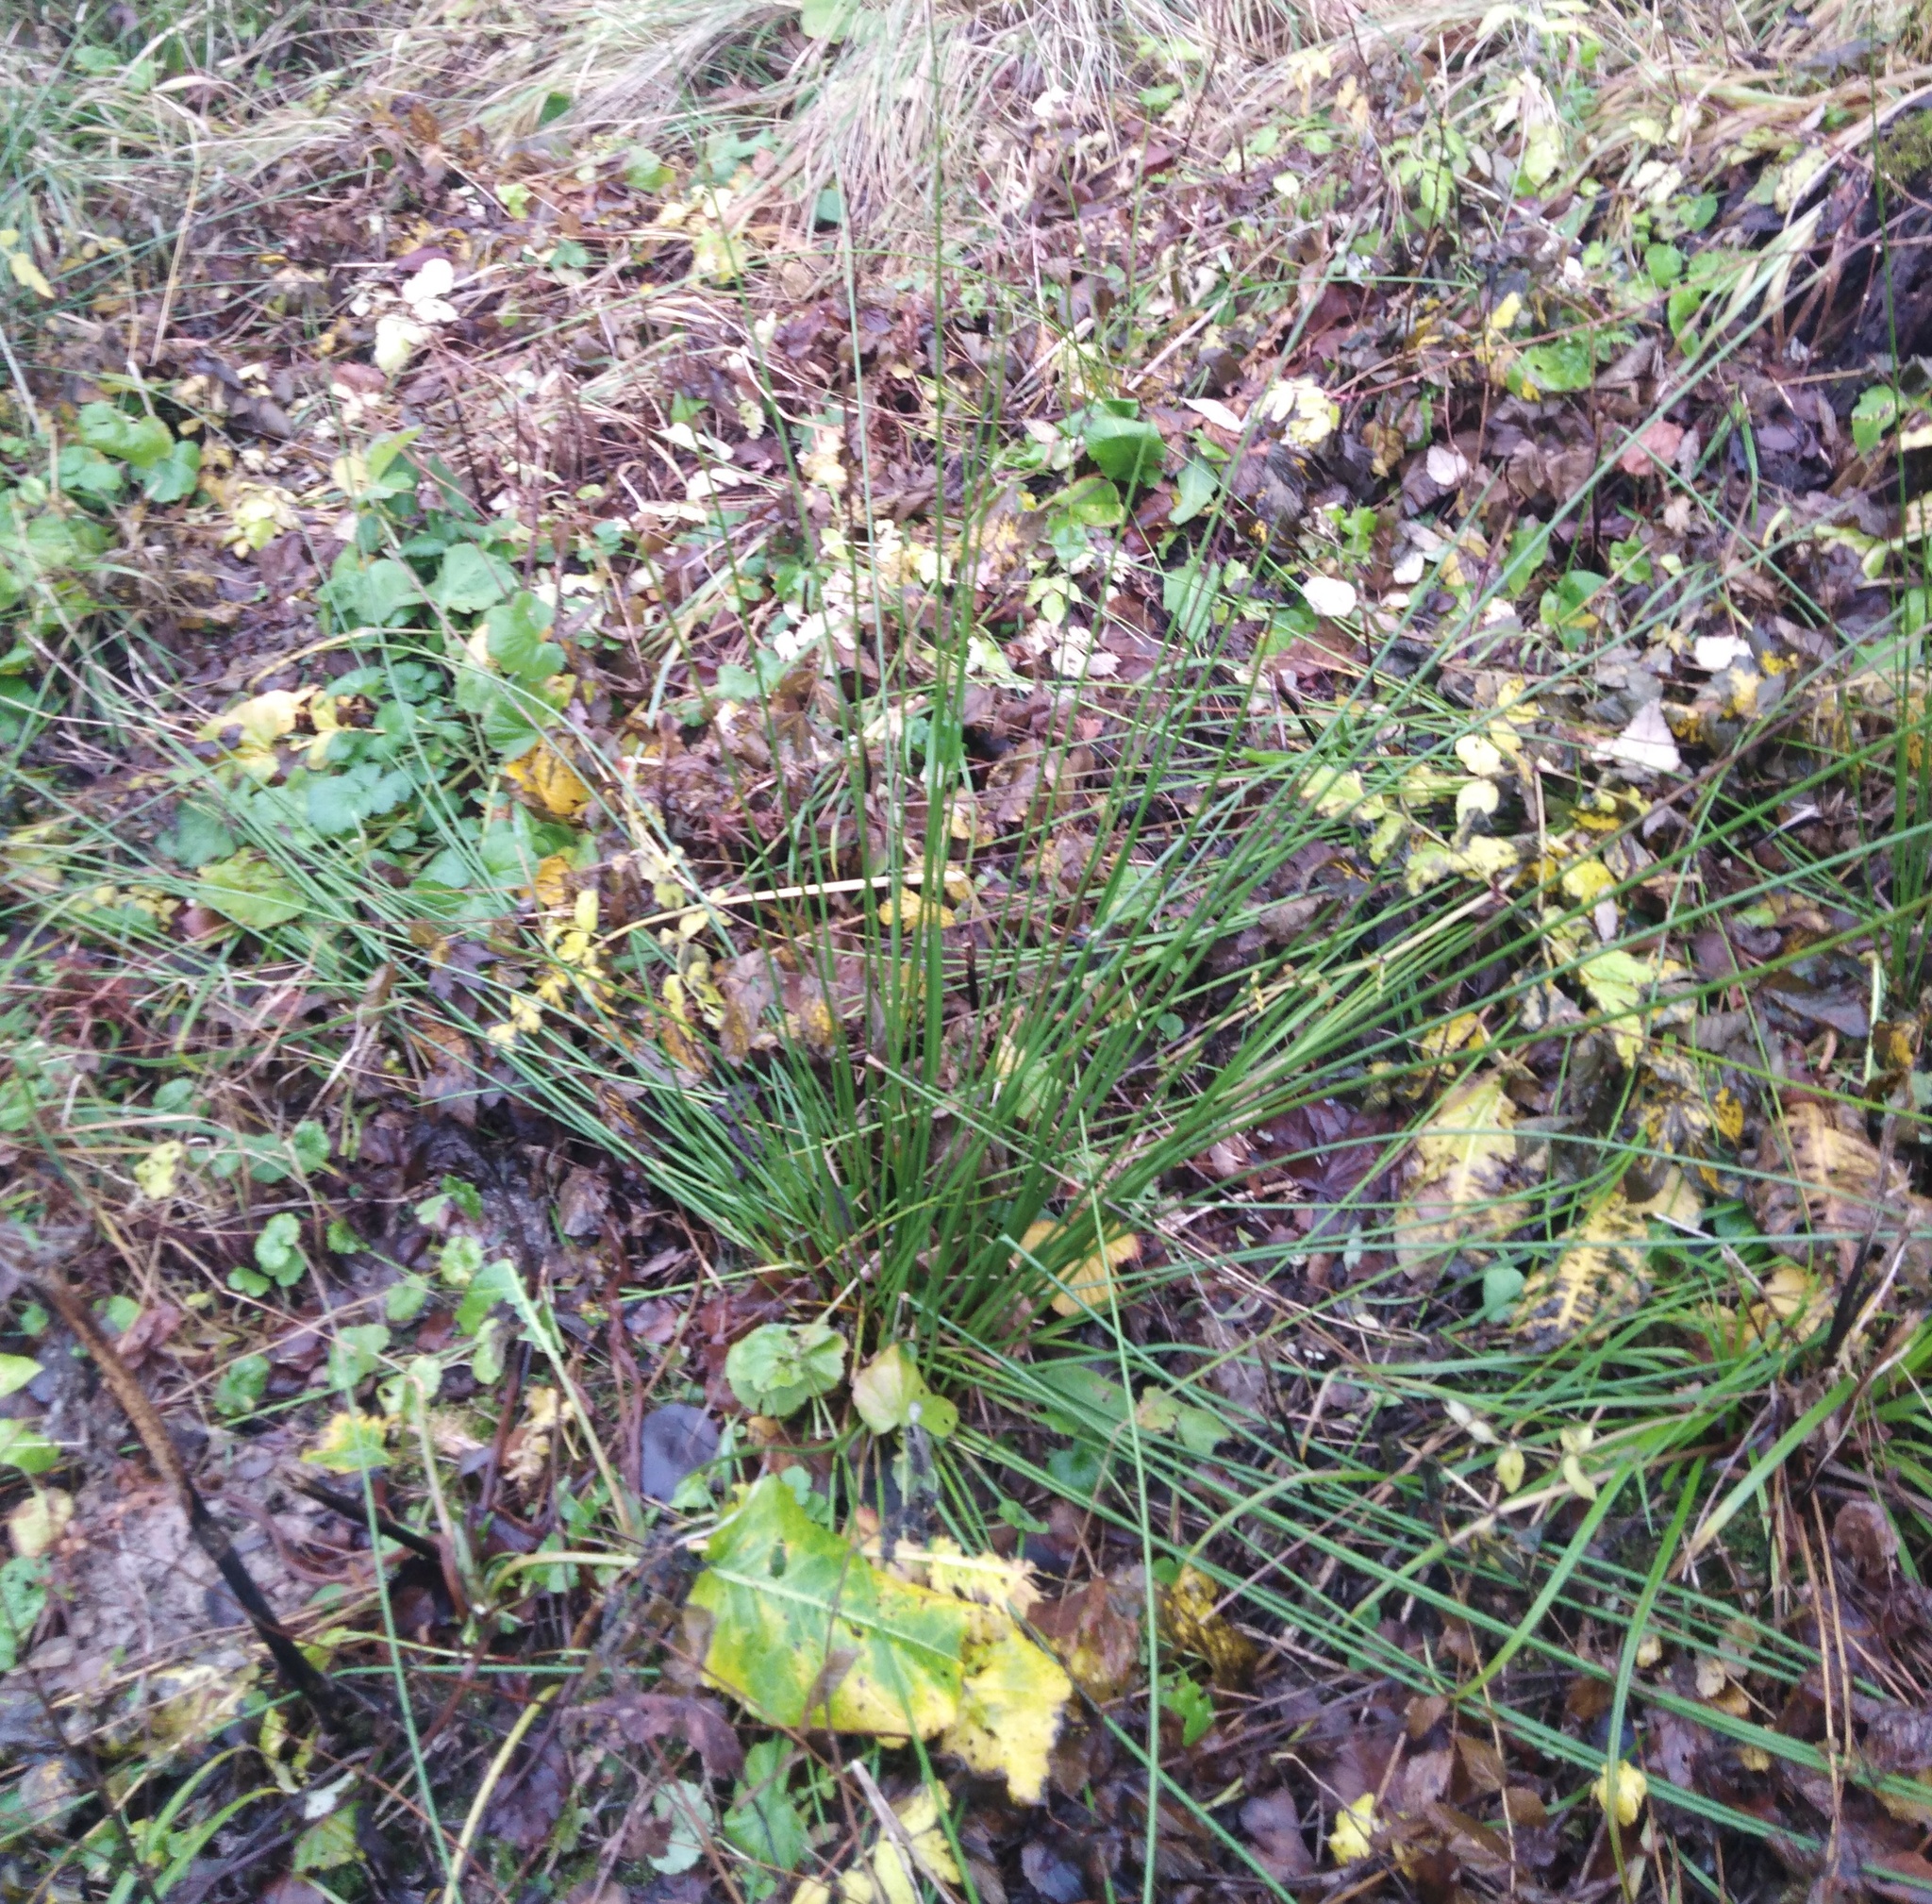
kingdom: Plantae
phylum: Tracheophyta
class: Liliopsida
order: Poales
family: Juncaceae
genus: Juncus
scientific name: Juncus effusus
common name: Soft rush
